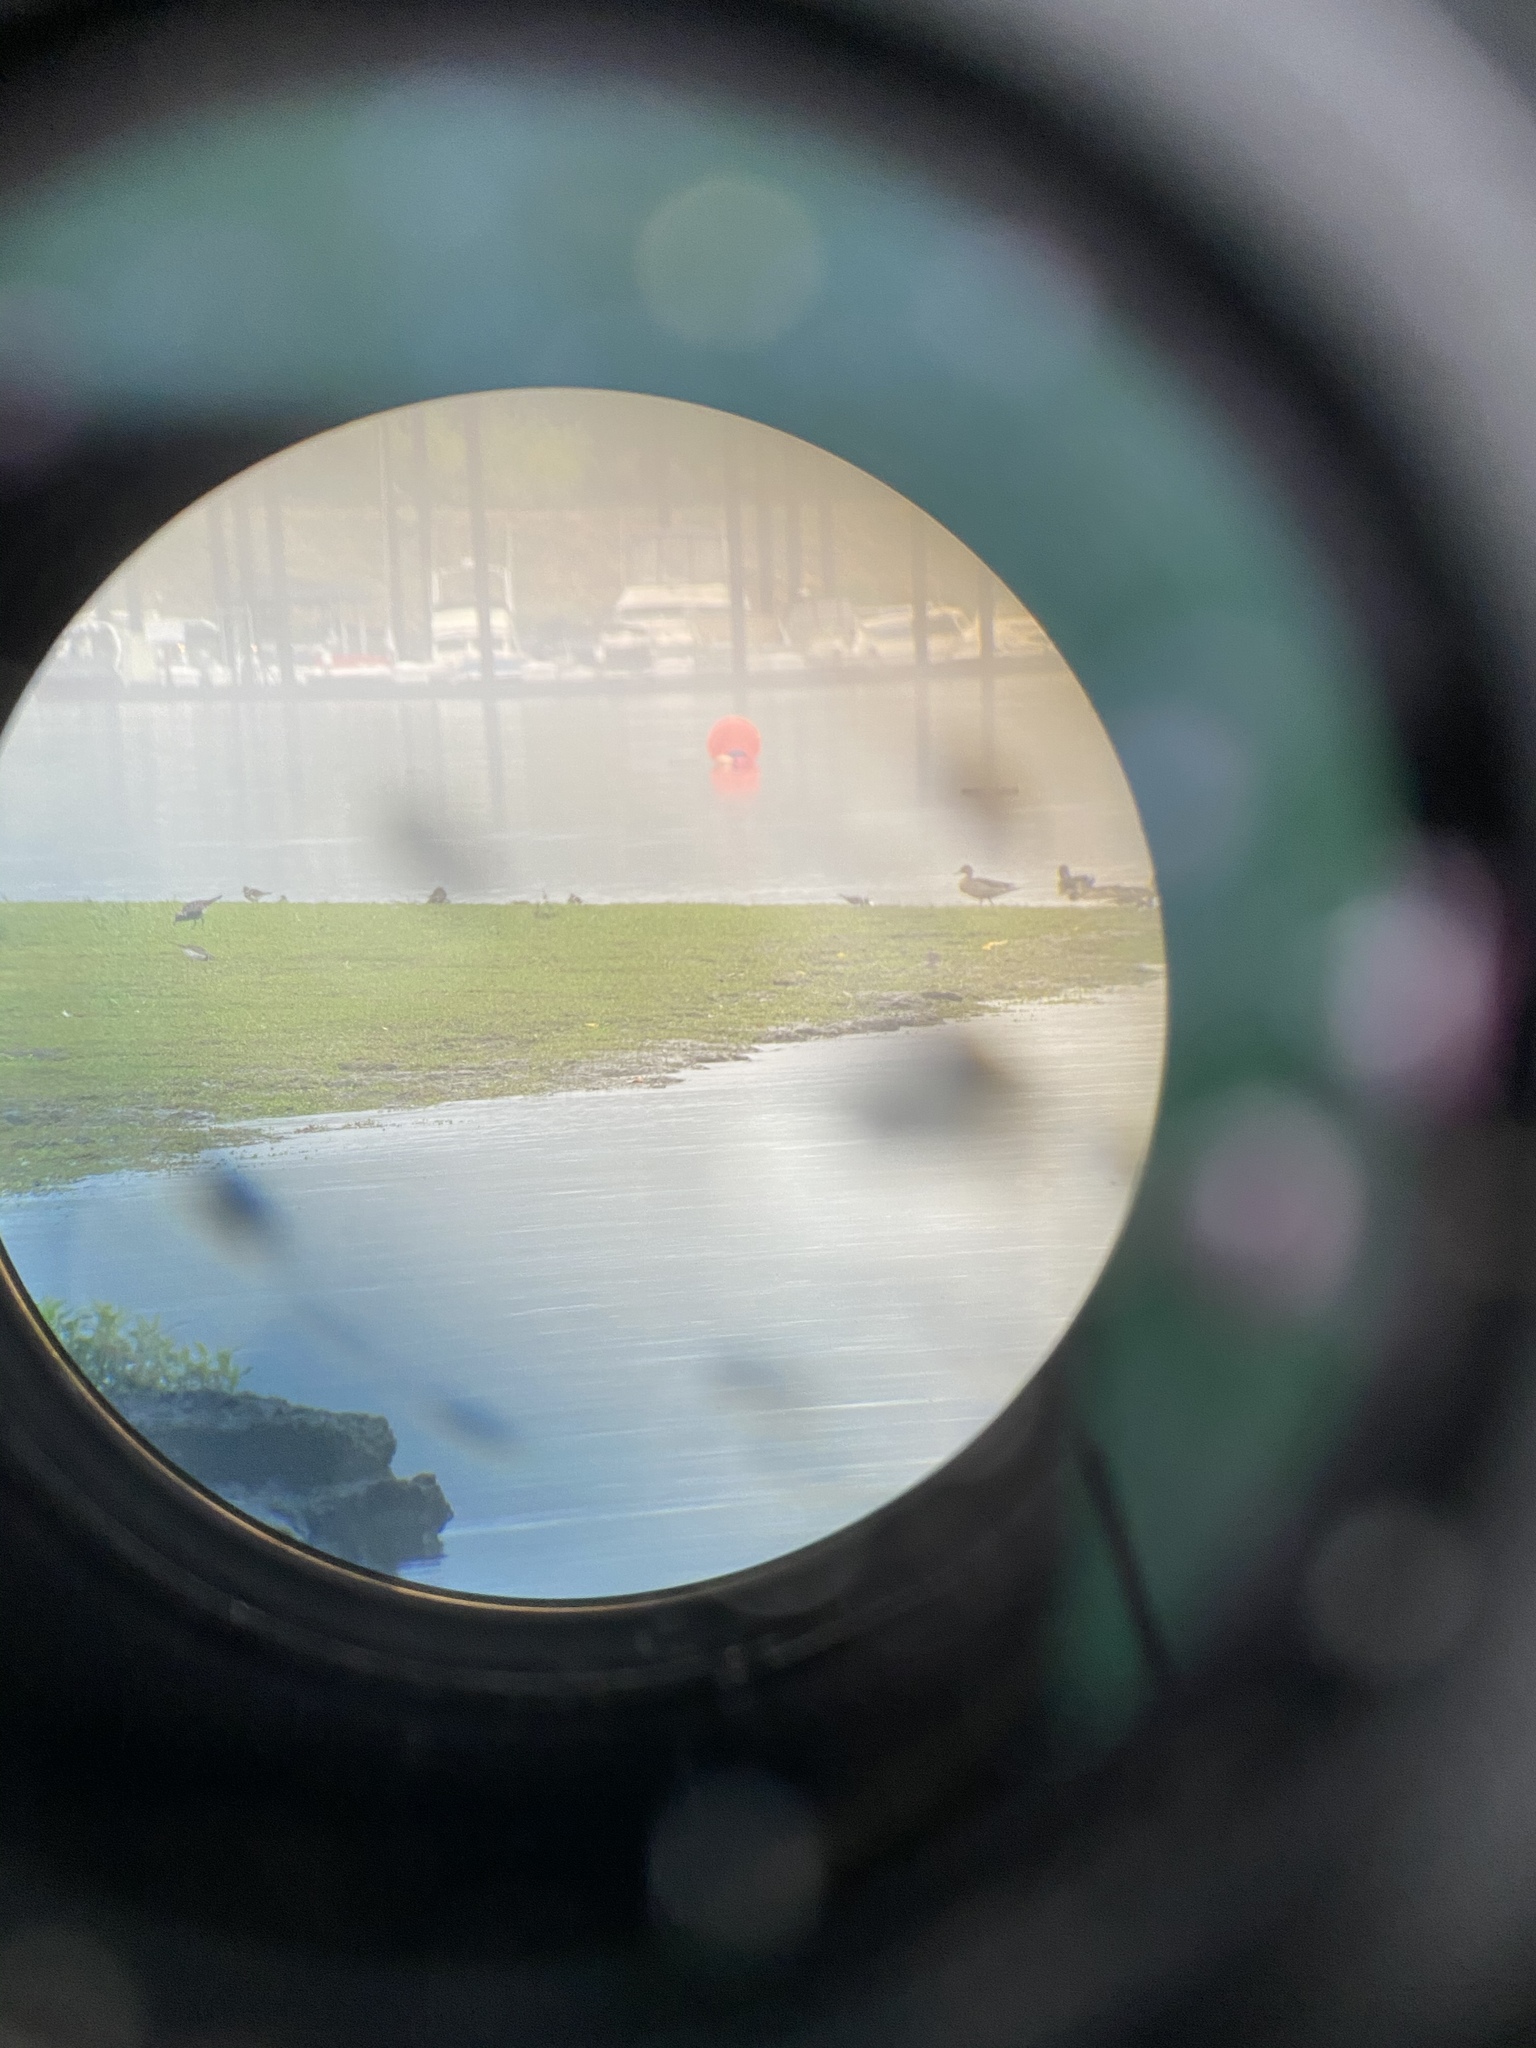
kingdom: Animalia
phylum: Chordata
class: Aves
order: Charadriiformes
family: Charadriidae
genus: Pluvialis
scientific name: Pluvialis squatarola
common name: Grey plover
